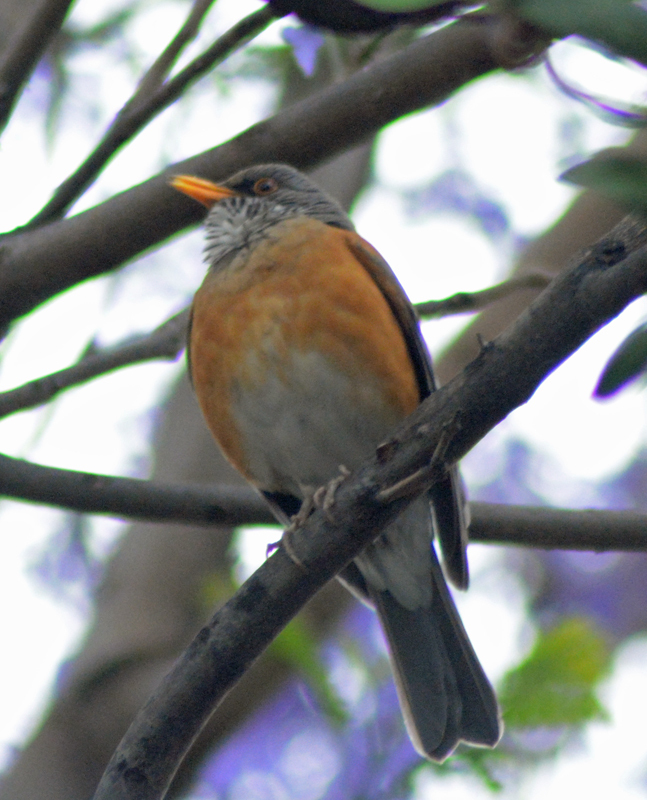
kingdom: Animalia
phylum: Chordata
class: Aves
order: Passeriformes
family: Turdidae
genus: Turdus
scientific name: Turdus rufopalliatus
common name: Rufous-backed robin
